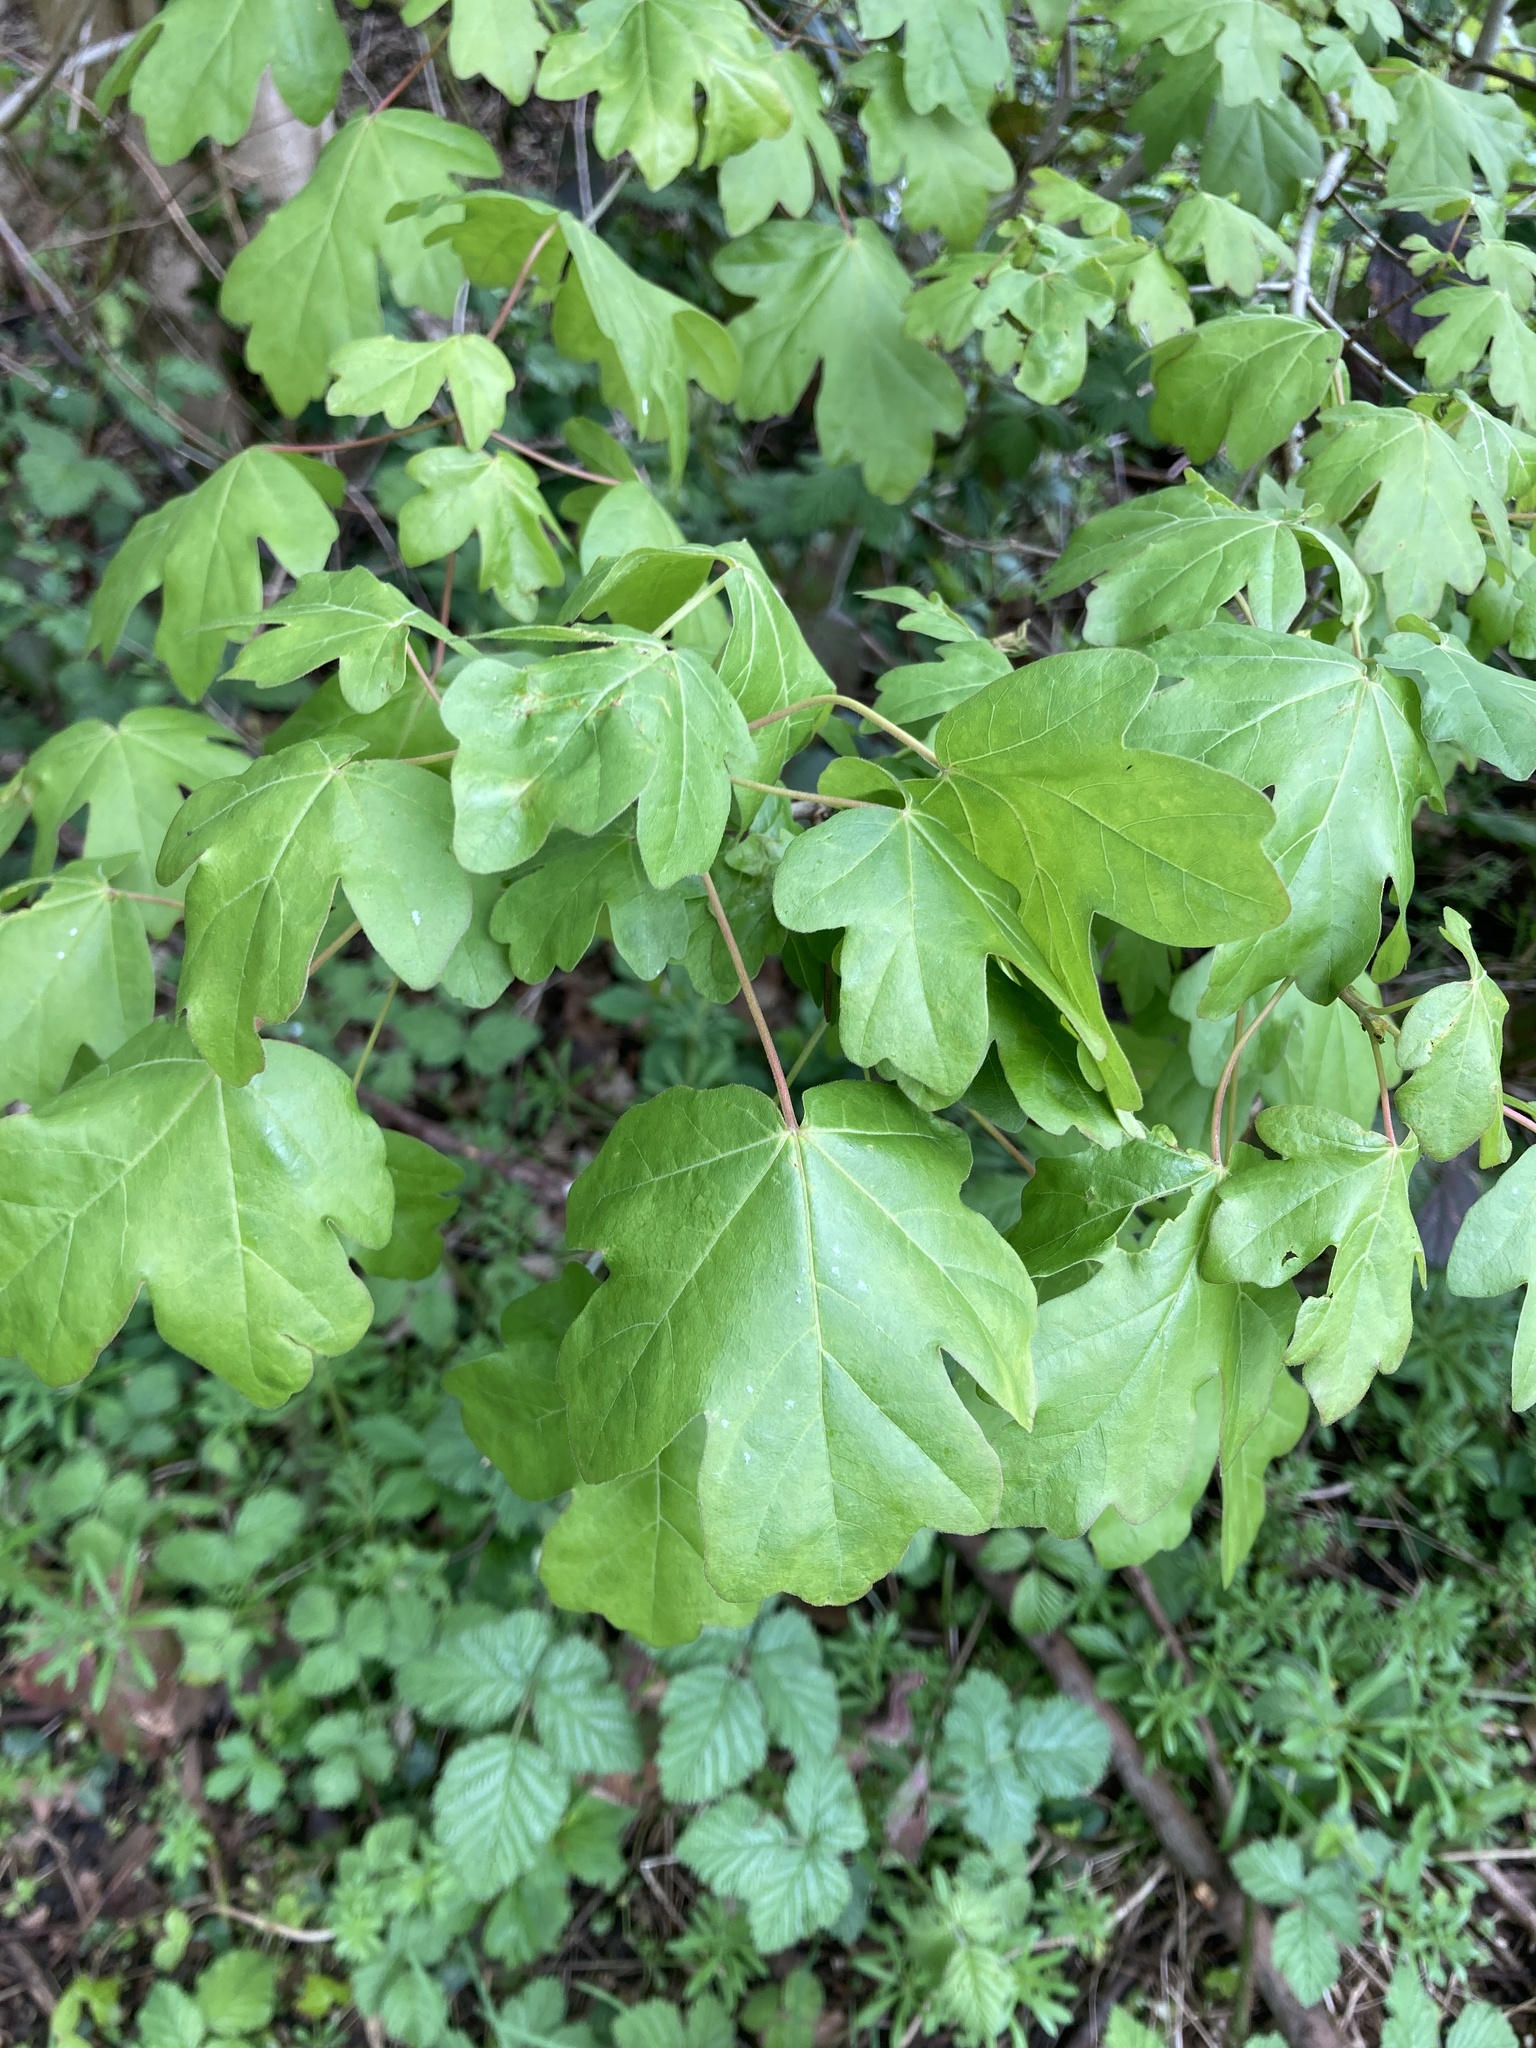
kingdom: Plantae
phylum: Tracheophyta
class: Magnoliopsida
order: Sapindales
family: Sapindaceae
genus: Acer
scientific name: Acer campestre
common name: Field maple
